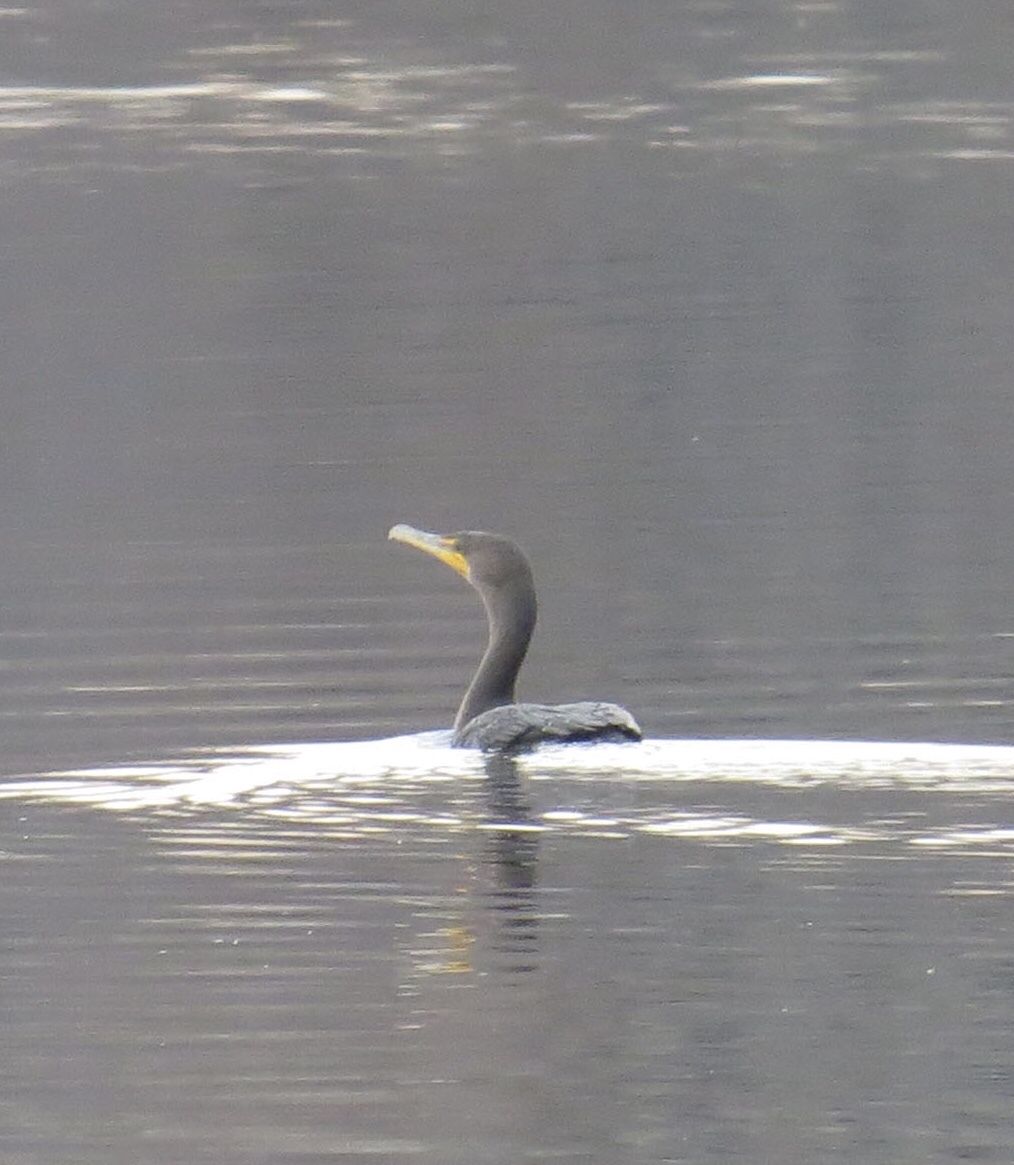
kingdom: Animalia
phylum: Chordata
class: Aves
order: Suliformes
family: Phalacrocoracidae
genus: Phalacrocorax
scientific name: Phalacrocorax auritus
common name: Double-crested cormorant
